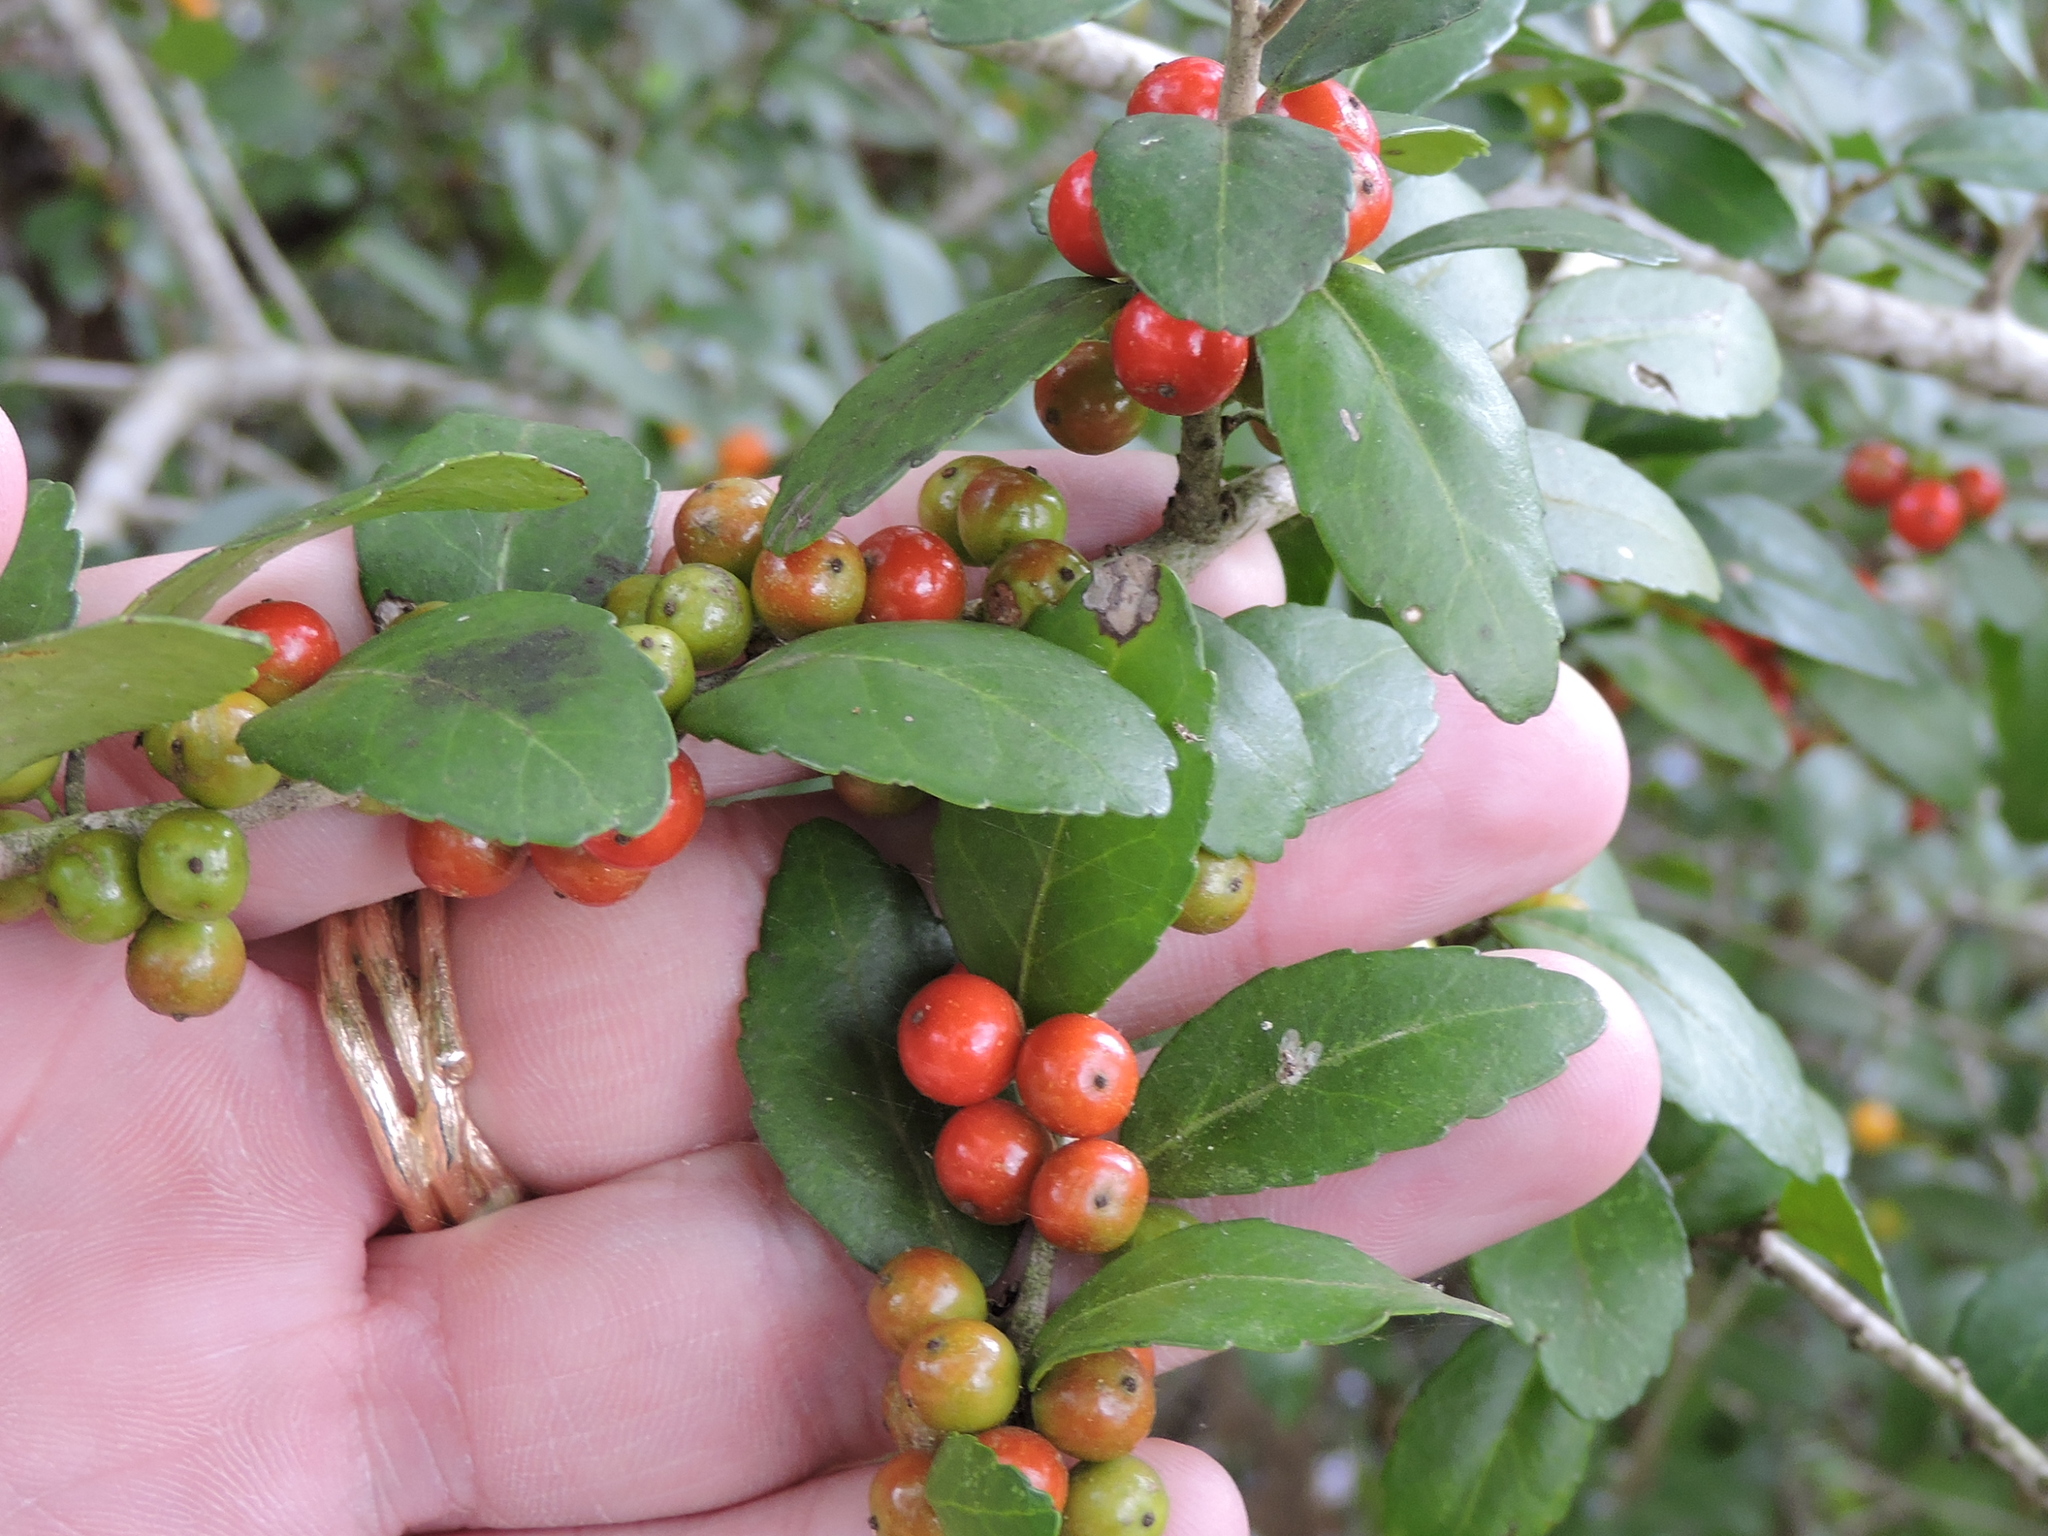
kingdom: Plantae
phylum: Tracheophyta
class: Magnoliopsida
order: Aquifoliales
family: Aquifoliaceae
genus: Ilex
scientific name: Ilex vomitoria
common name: Yaupon holly
